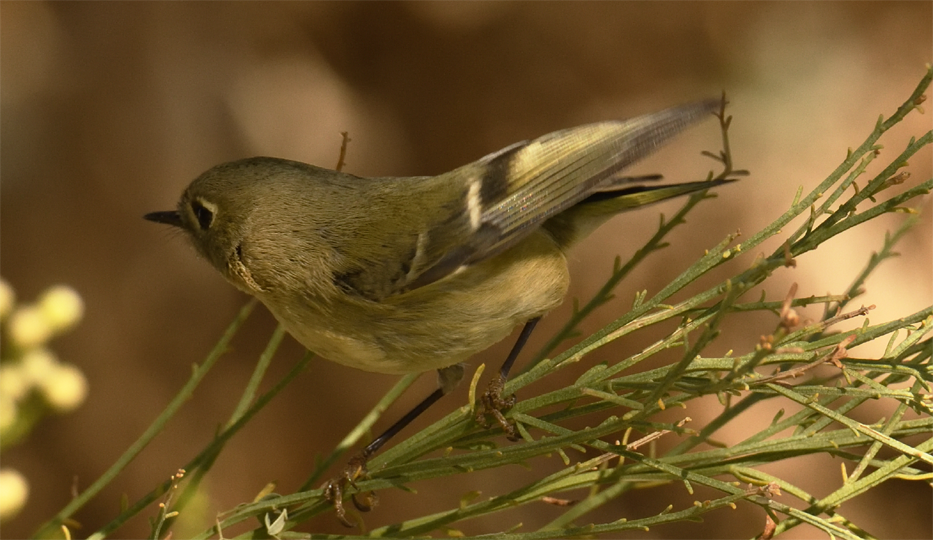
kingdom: Animalia
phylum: Chordata
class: Aves
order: Passeriformes
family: Regulidae
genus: Regulus
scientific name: Regulus calendula
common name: Ruby-crowned kinglet
